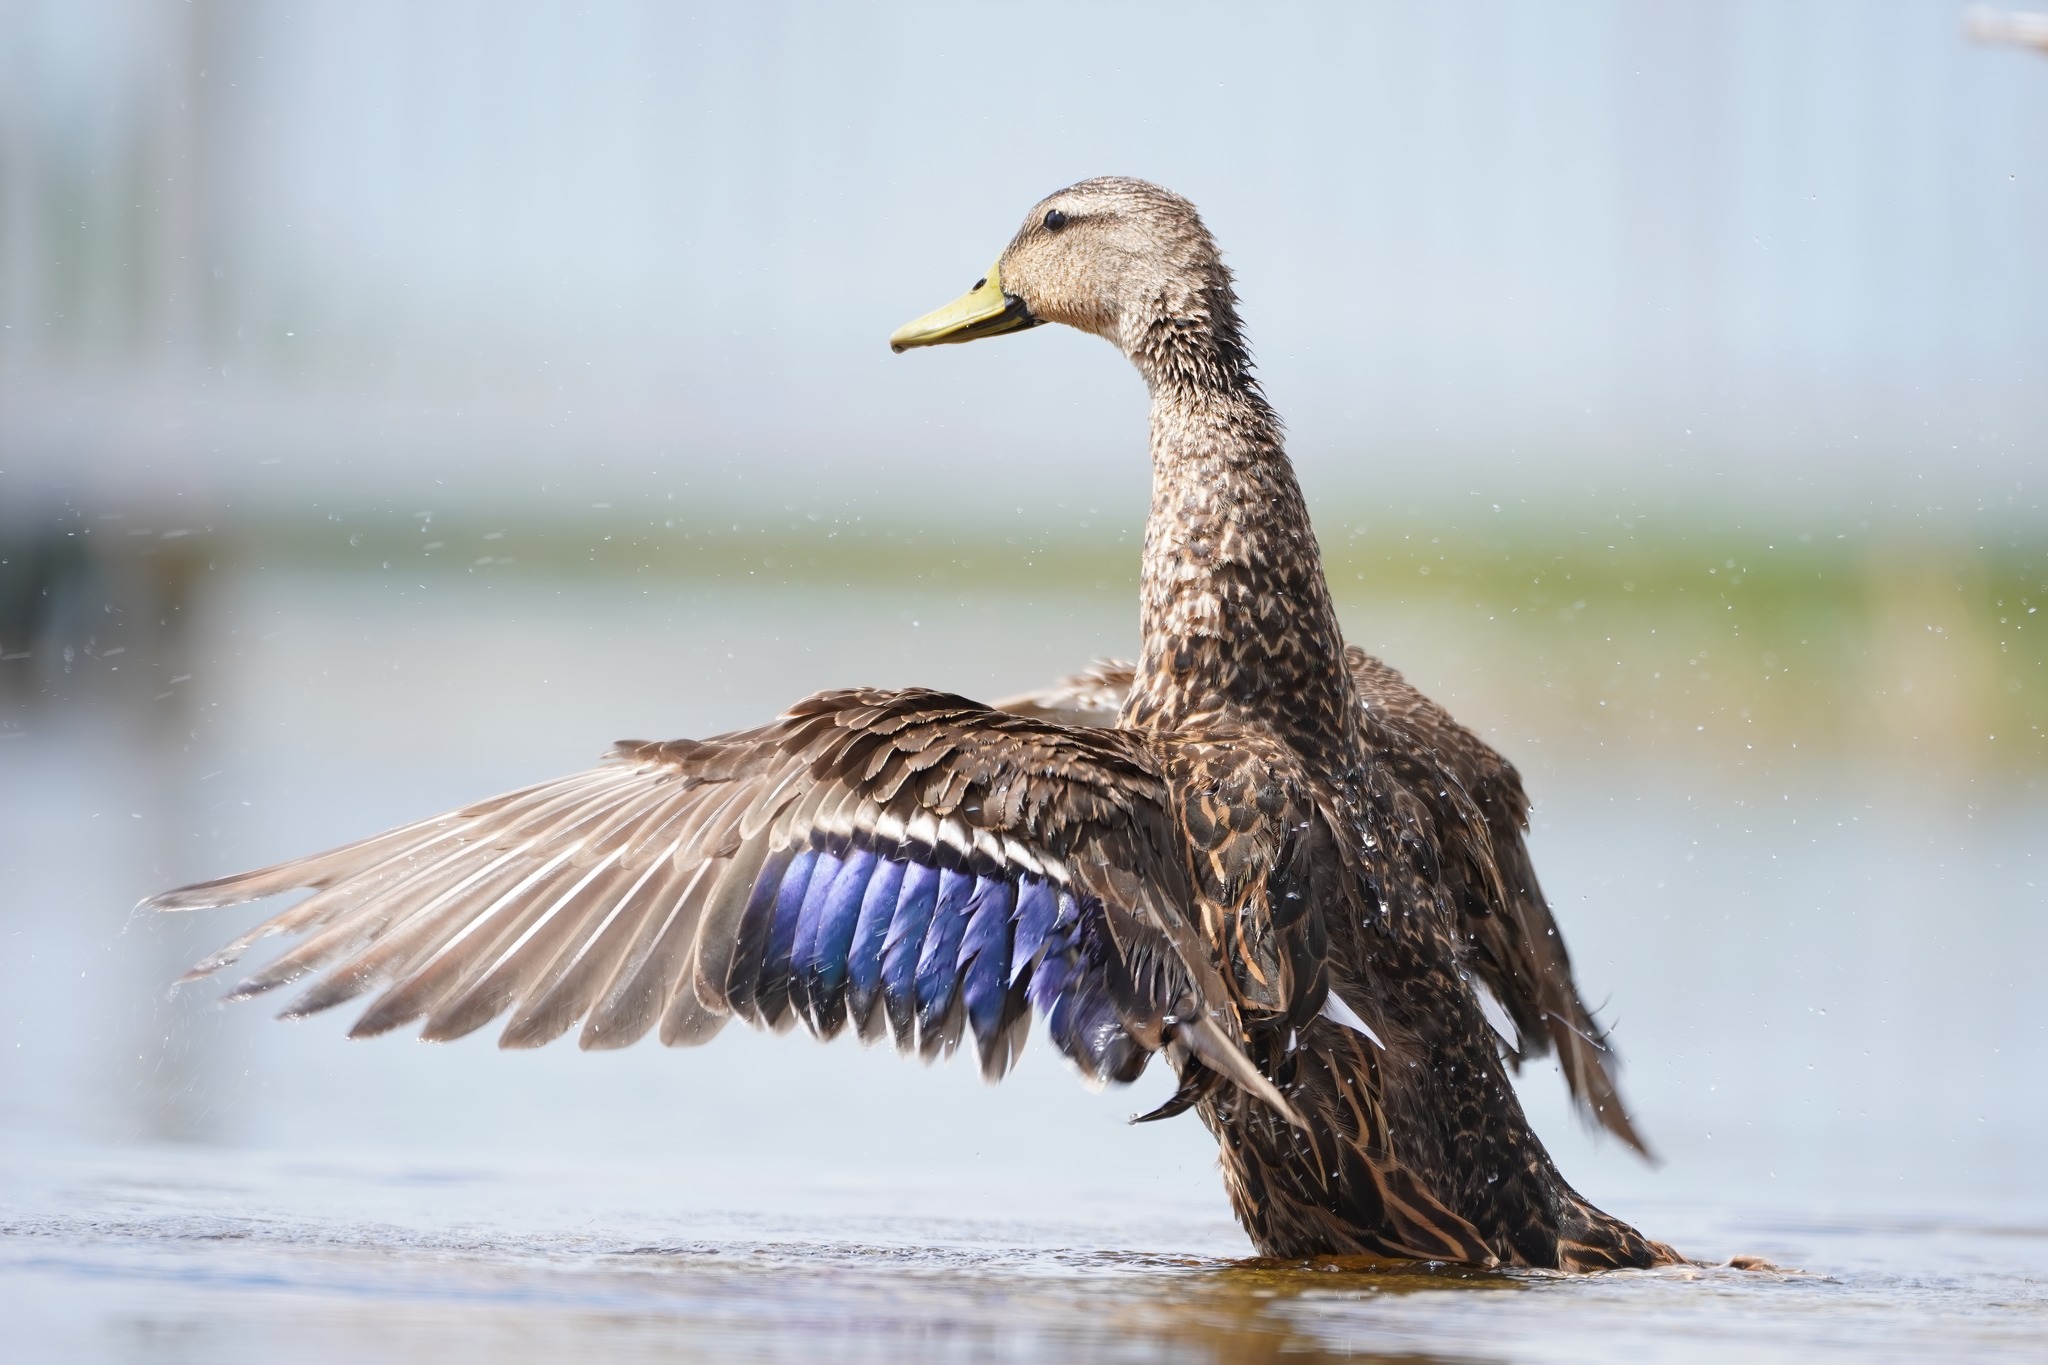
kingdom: Animalia
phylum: Chordata
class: Aves
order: Anseriformes
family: Anatidae
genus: Anas
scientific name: Anas
